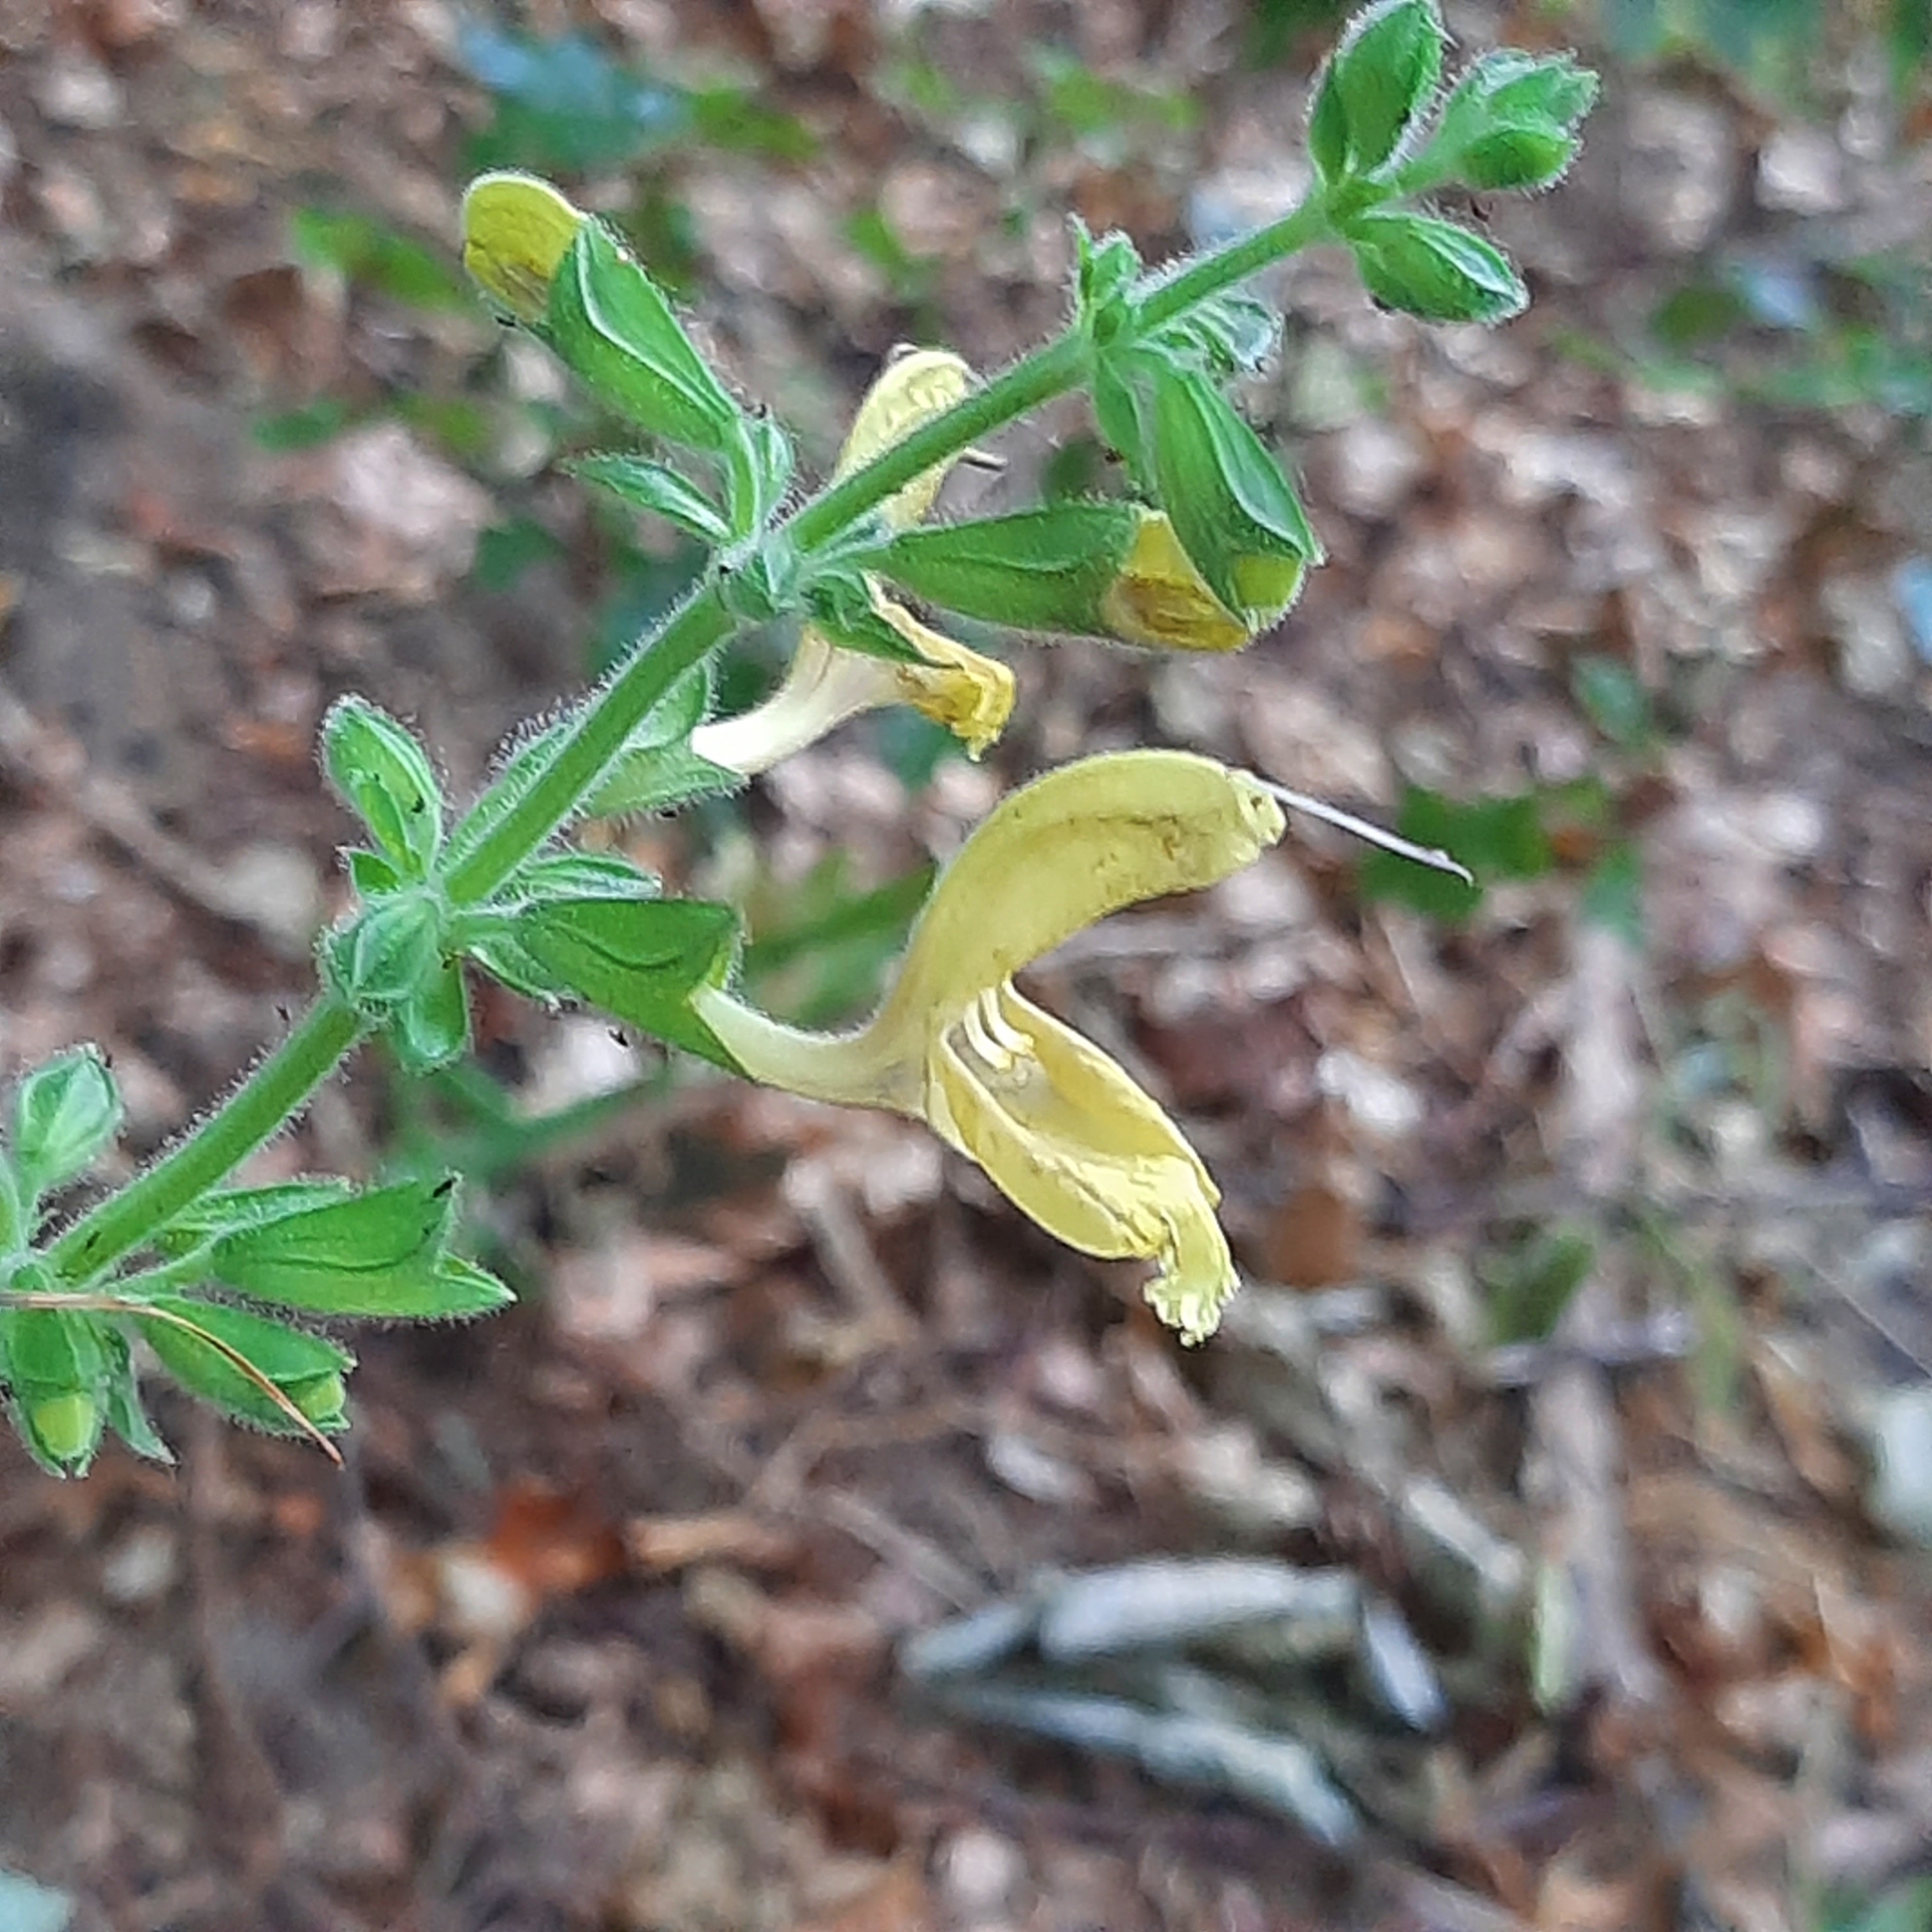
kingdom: Plantae
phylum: Tracheophyta
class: Magnoliopsida
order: Lamiales
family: Lamiaceae
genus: Salvia
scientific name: Salvia glutinosa
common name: Sticky clary
